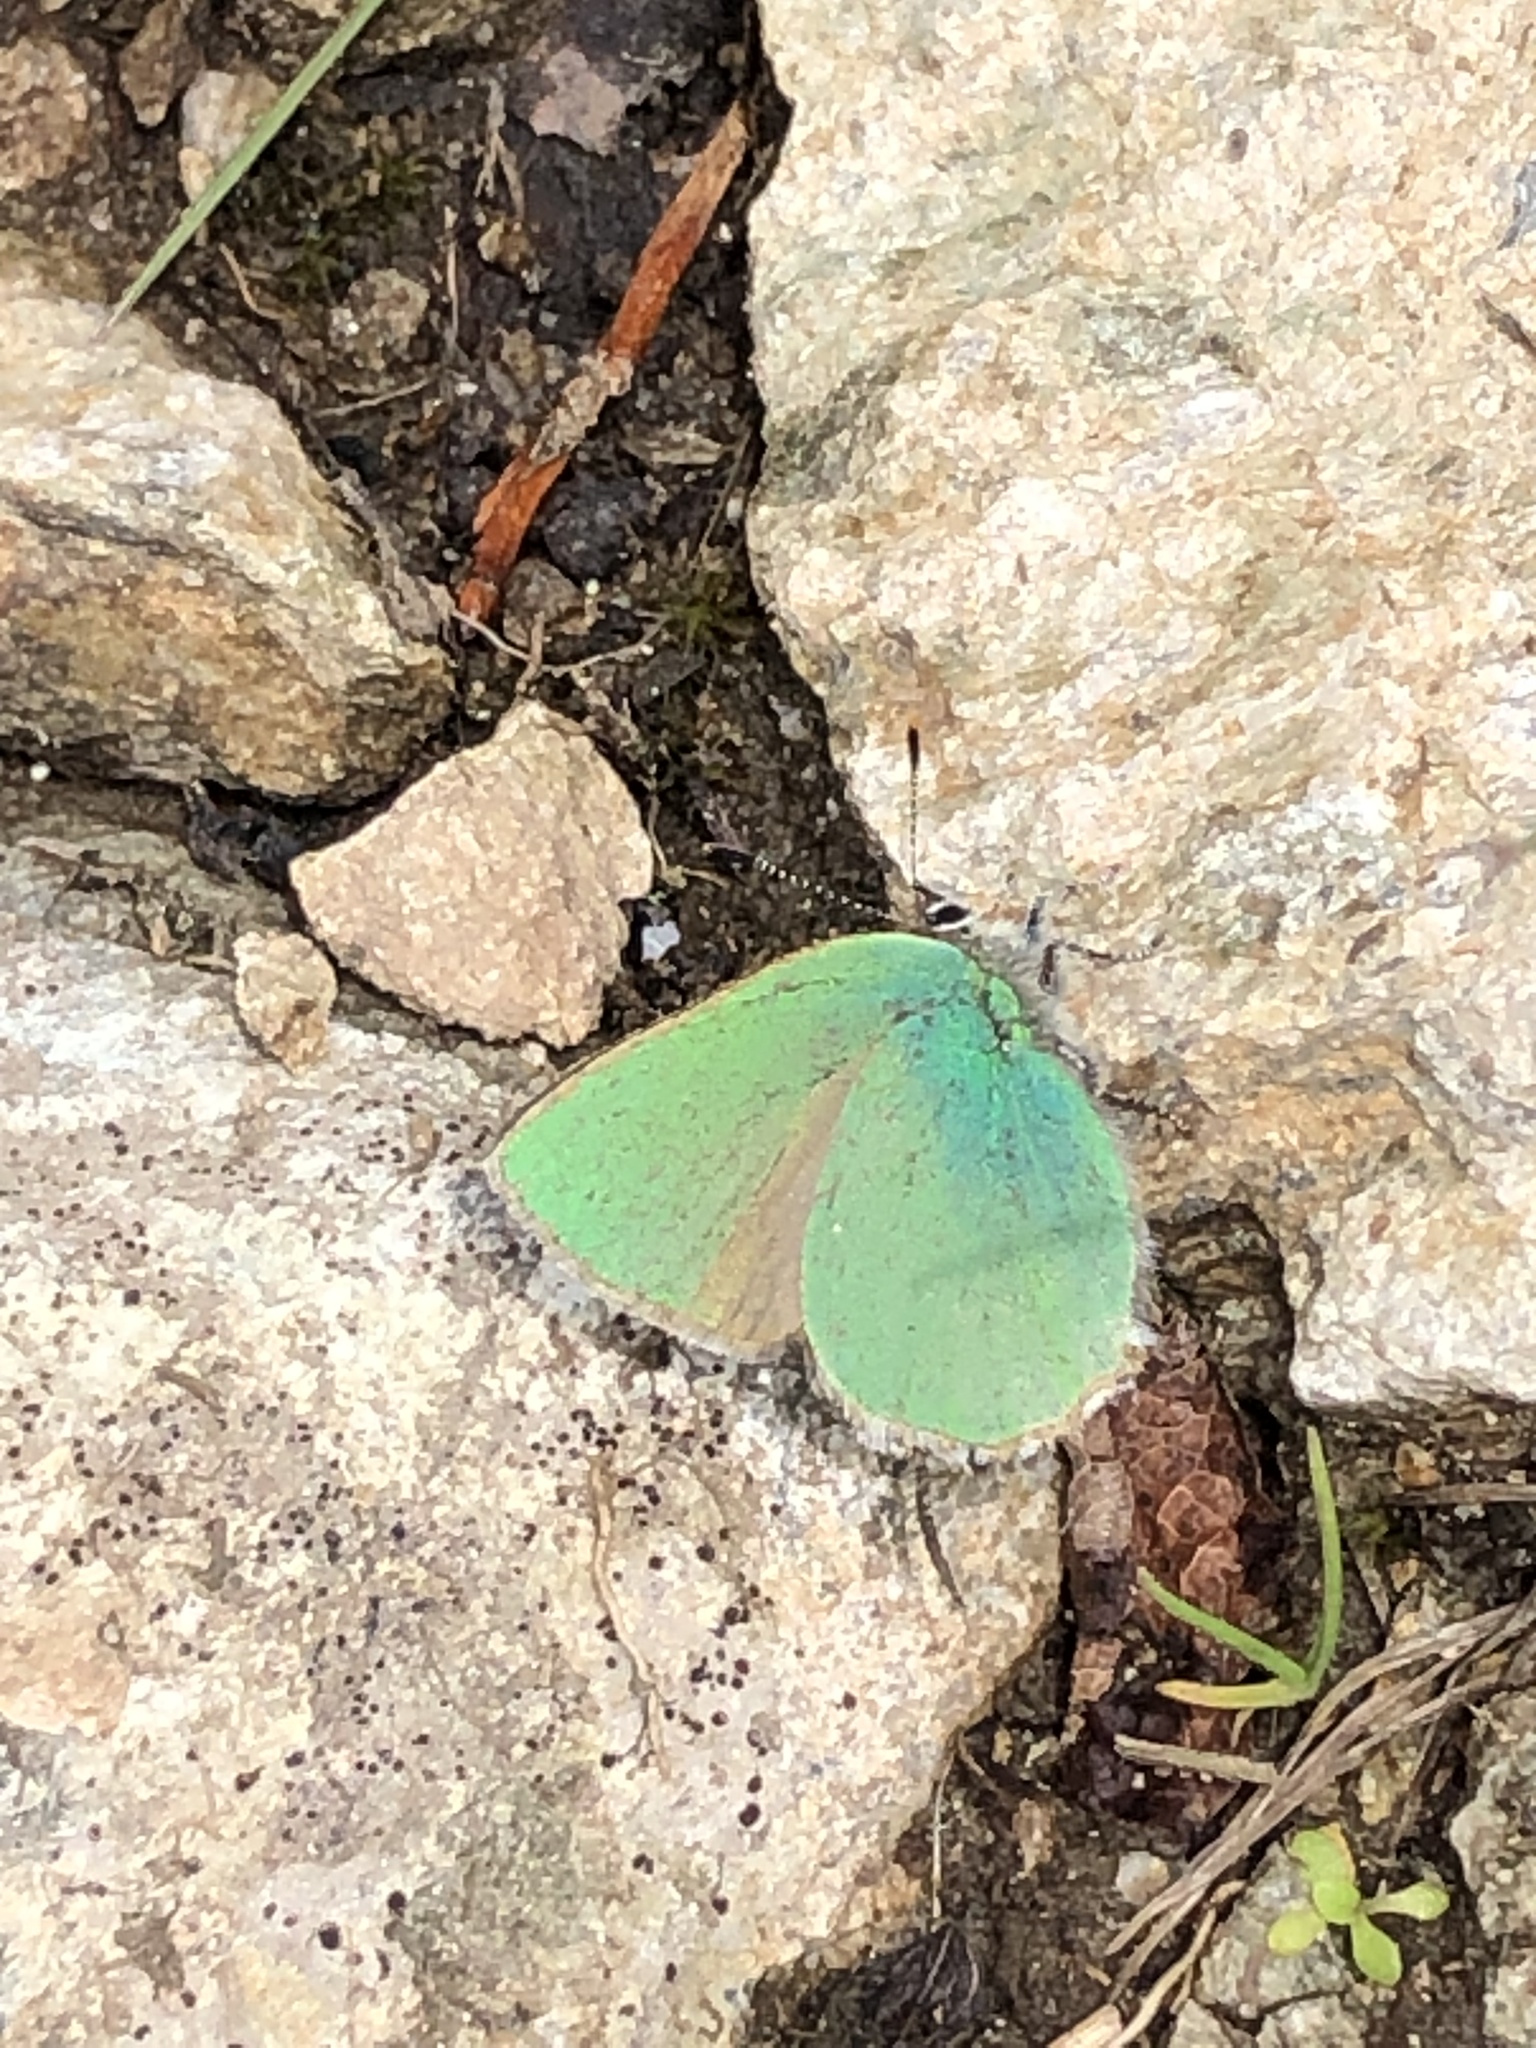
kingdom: Animalia
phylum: Arthropoda
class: Insecta
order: Lepidoptera
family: Lycaenidae
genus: Callophrys
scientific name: Callophrys rubi
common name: Green hairstreak
